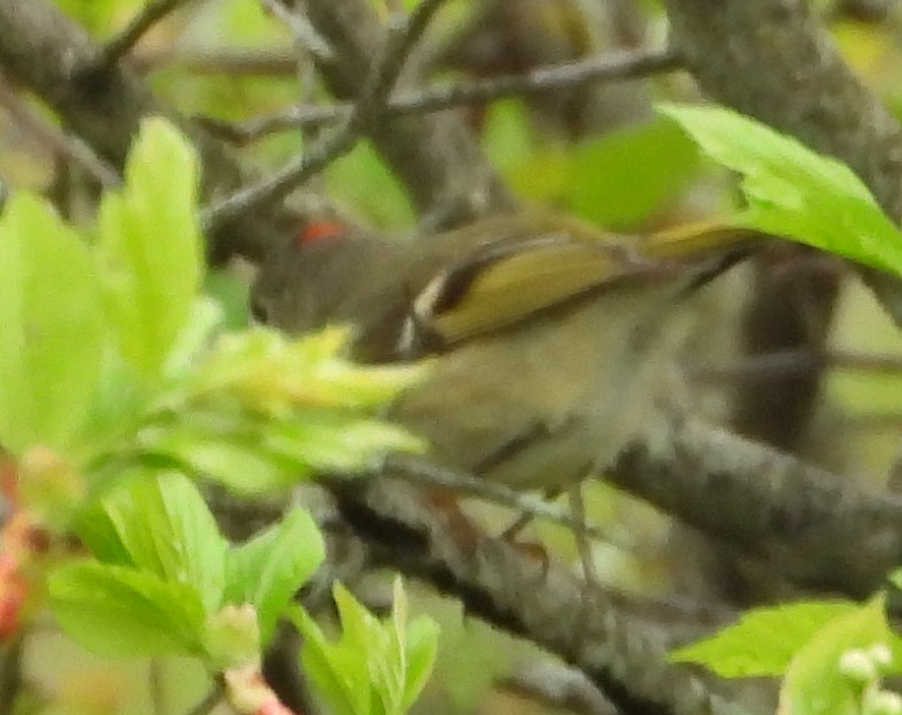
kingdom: Animalia
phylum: Chordata
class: Aves
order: Passeriformes
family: Regulidae
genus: Regulus
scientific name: Regulus calendula
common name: Ruby-crowned kinglet
